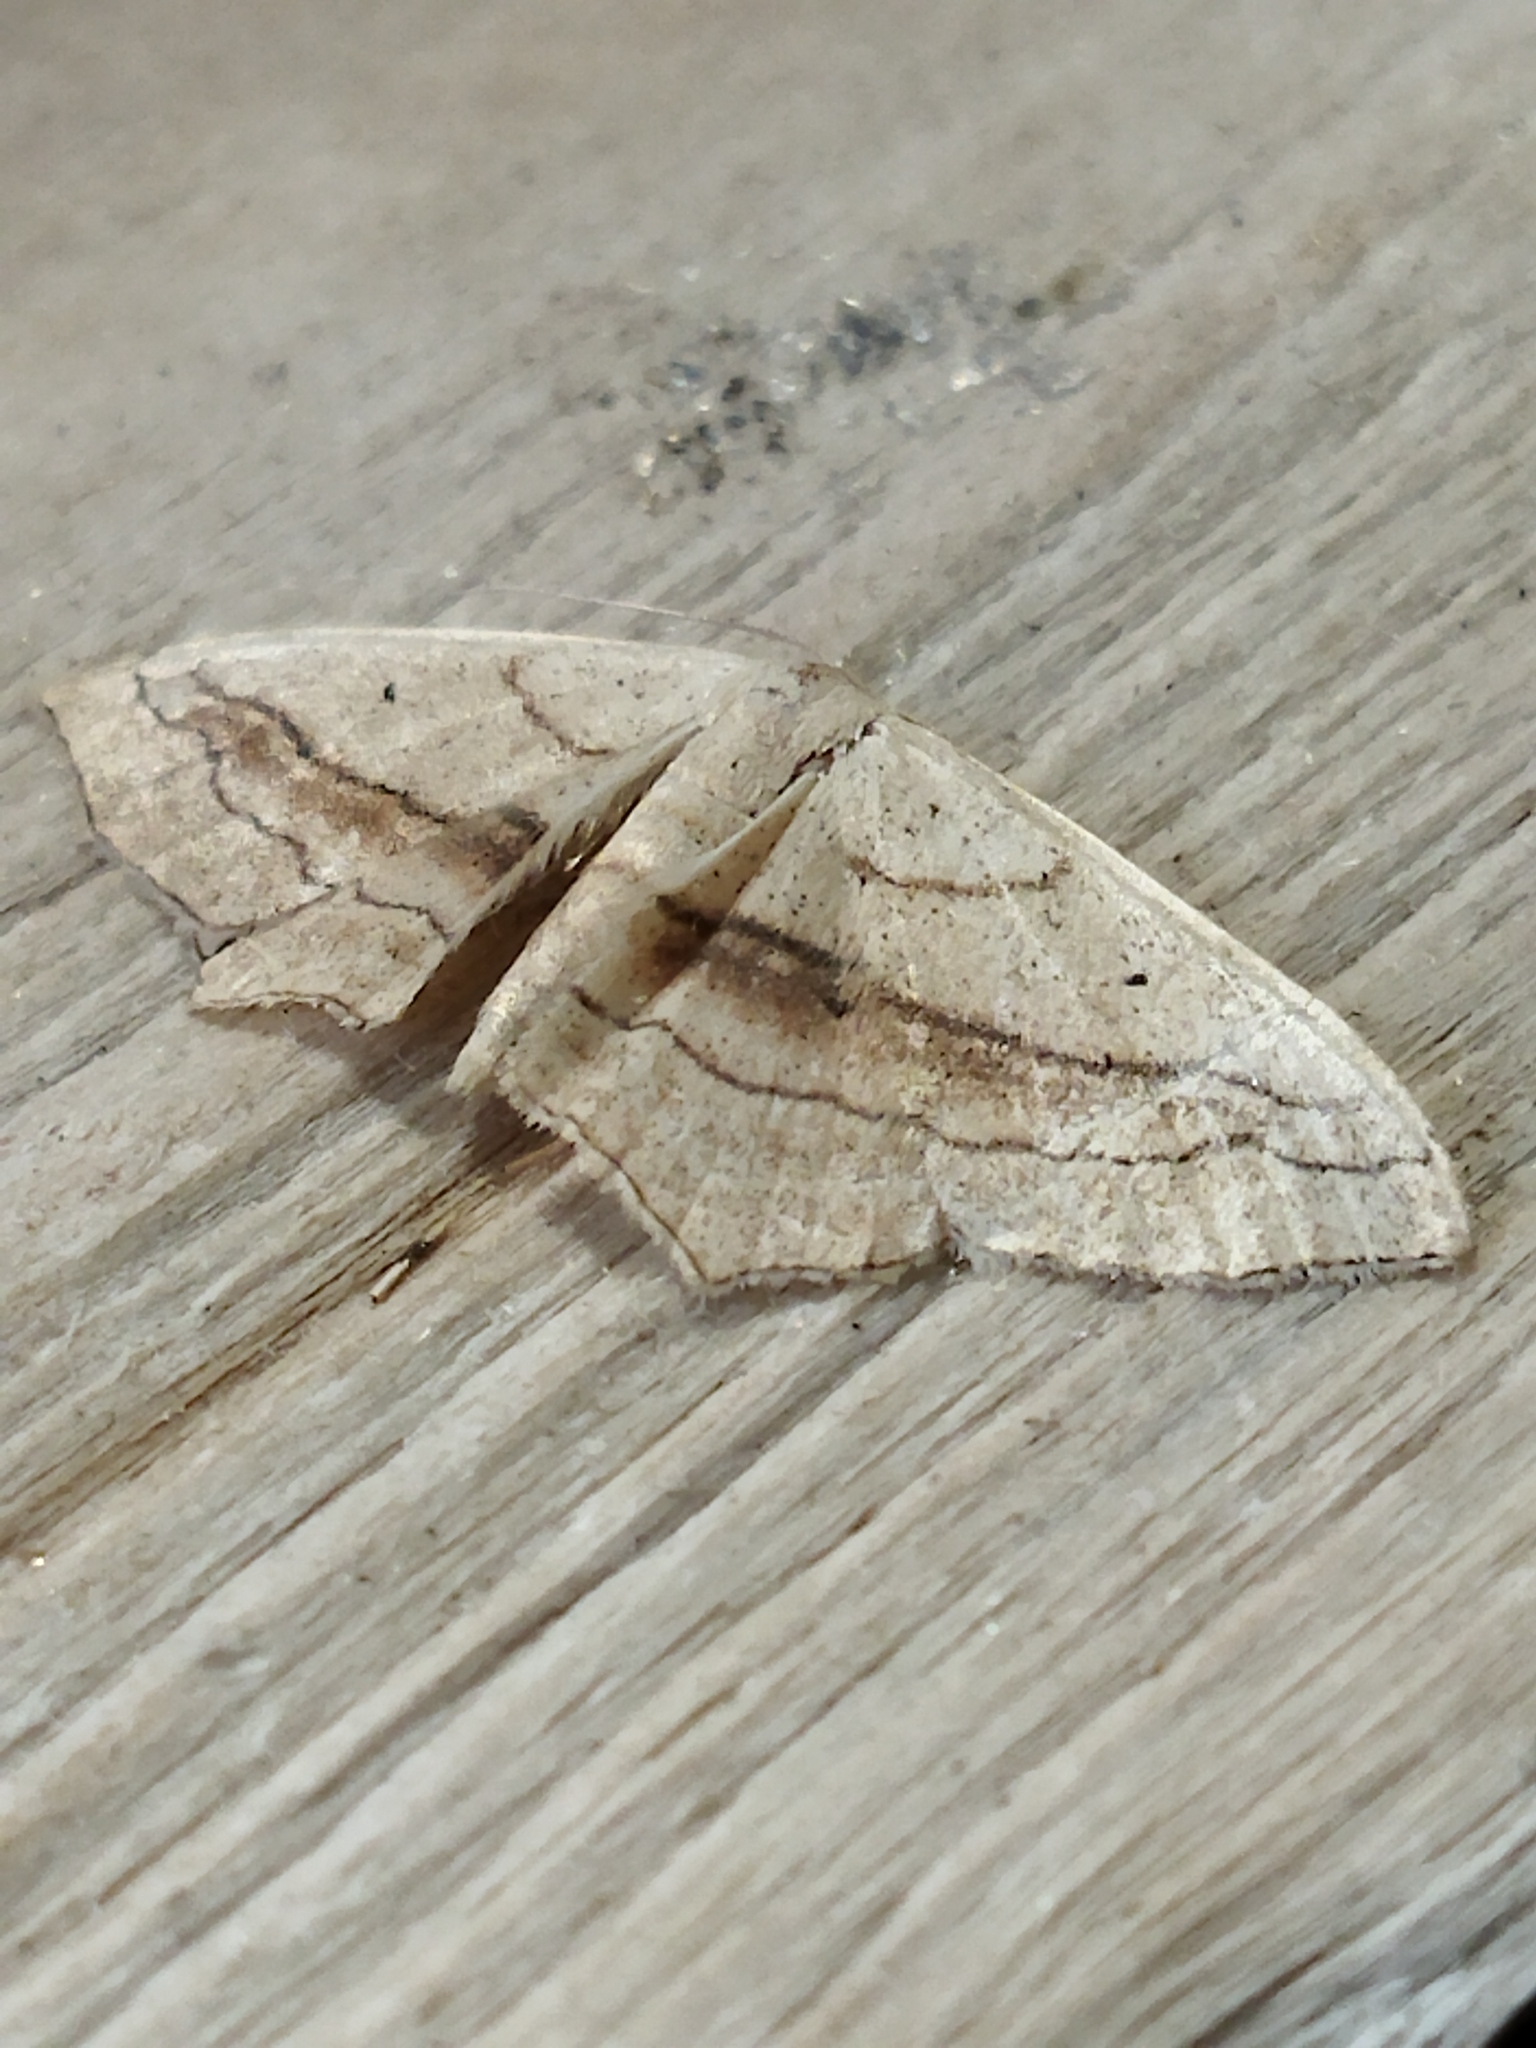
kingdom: Animalia
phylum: Arthropoda
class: Insecta
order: Lepidoptera
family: Geometridae
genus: Scopula
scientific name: Scopula imitaria
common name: Small blood-vein
